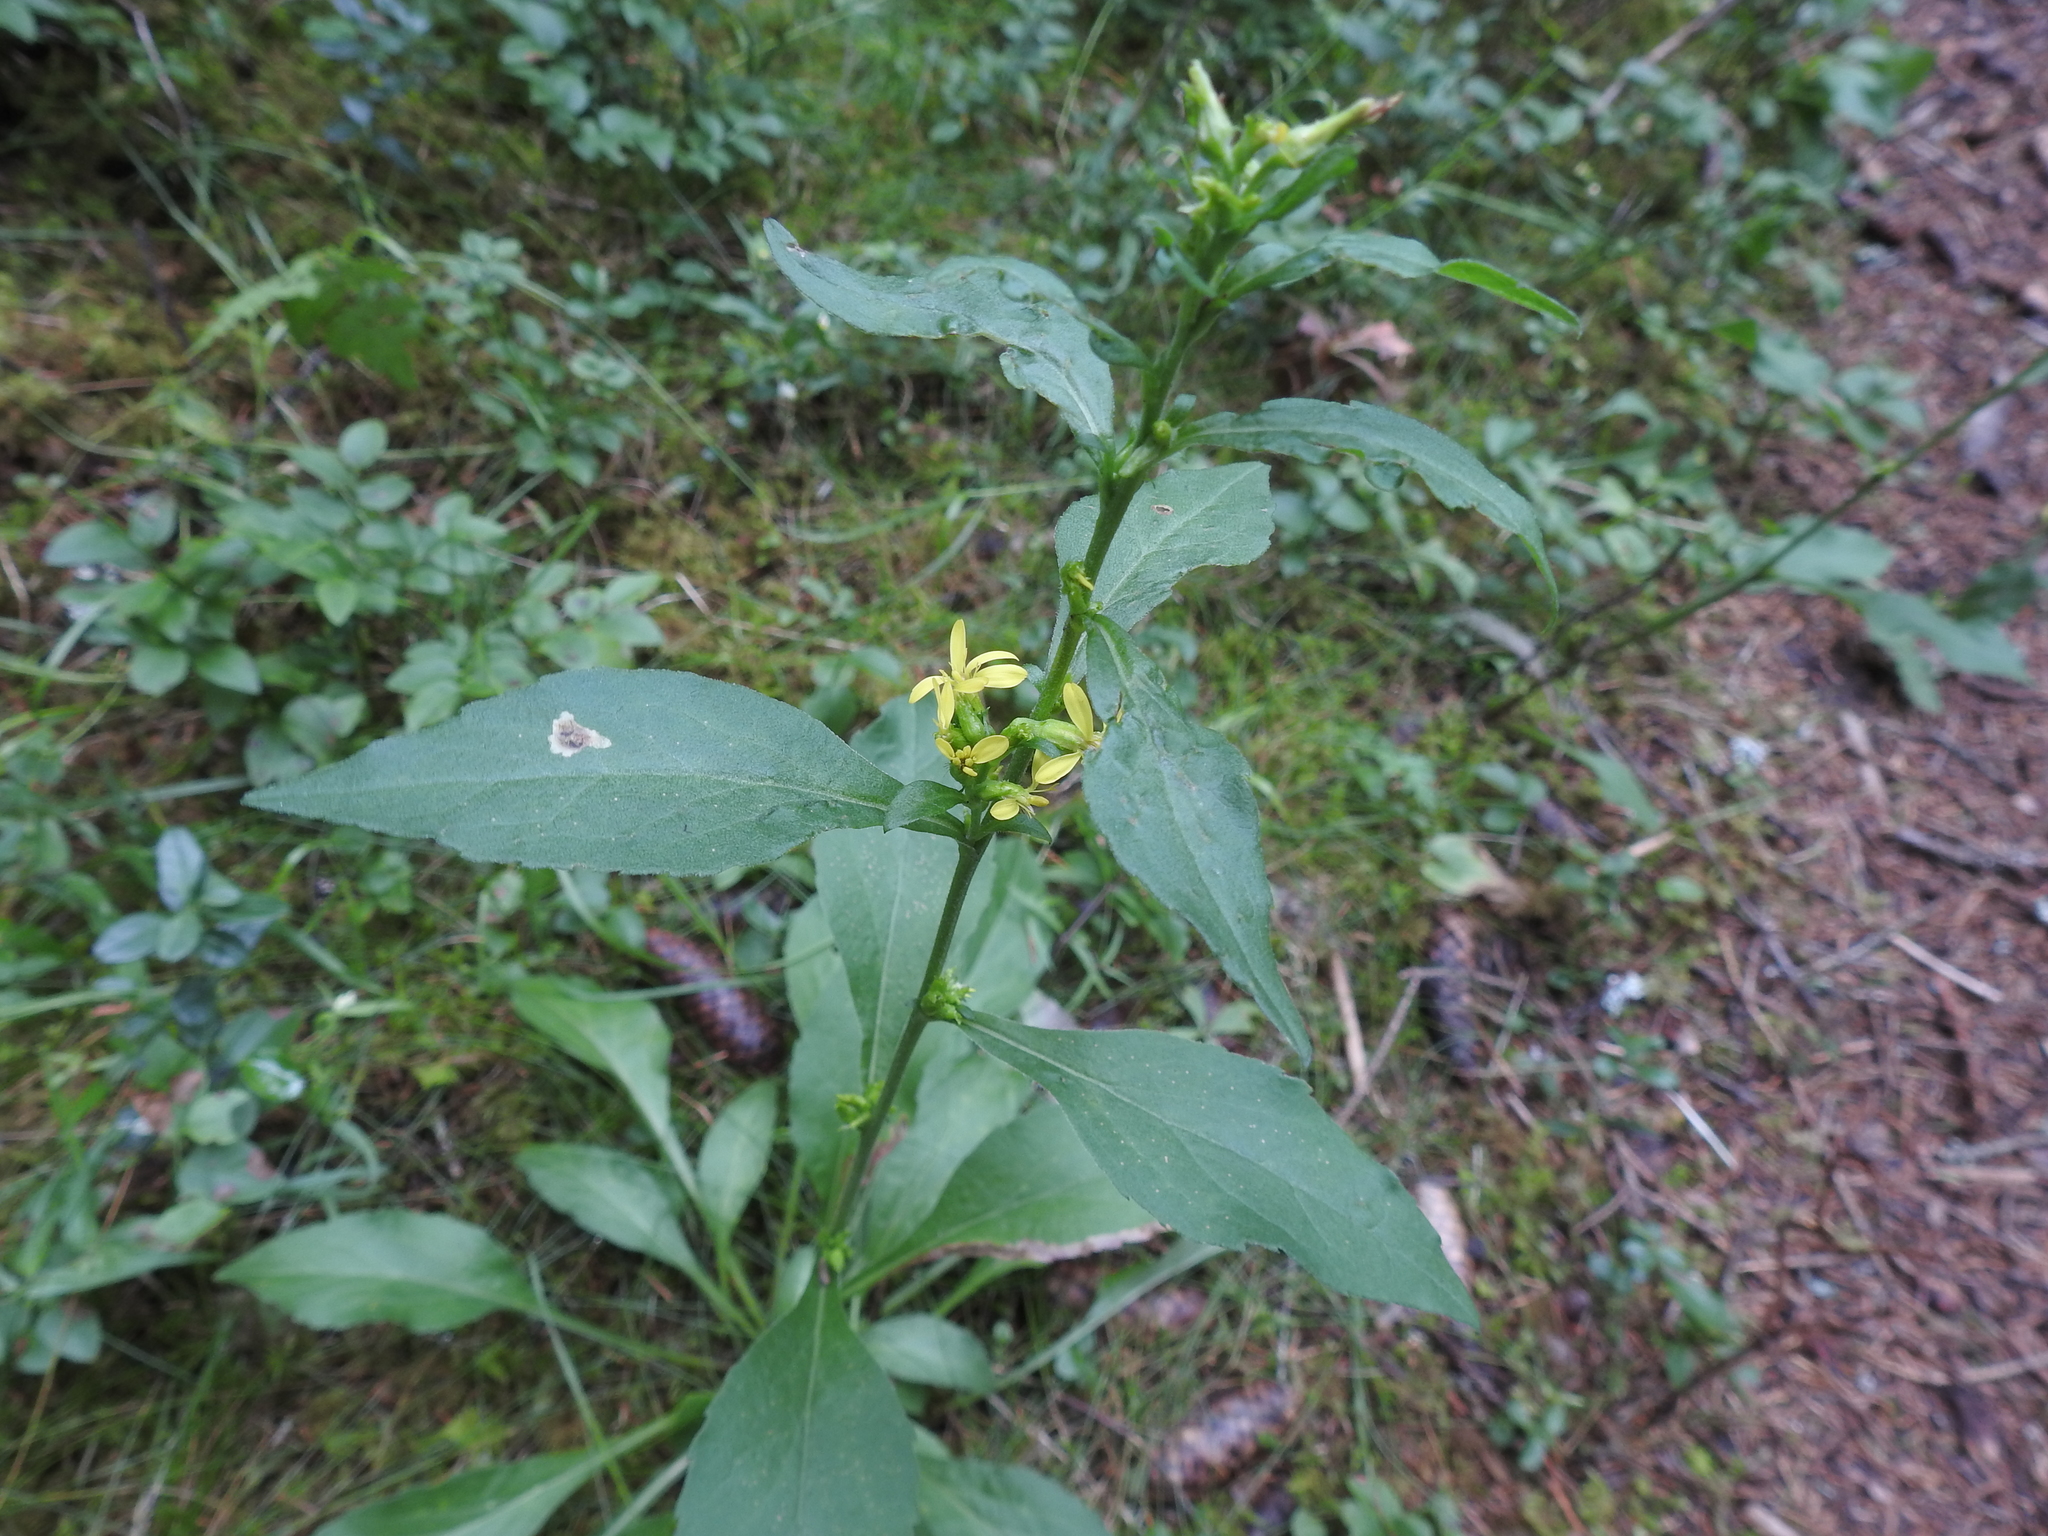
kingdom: Plantae
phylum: Tracheophyta
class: Magnoliopsida
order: Asterales
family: Asteraceae
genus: Solidago
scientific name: Solidago virgaurea
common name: Goldenrod
